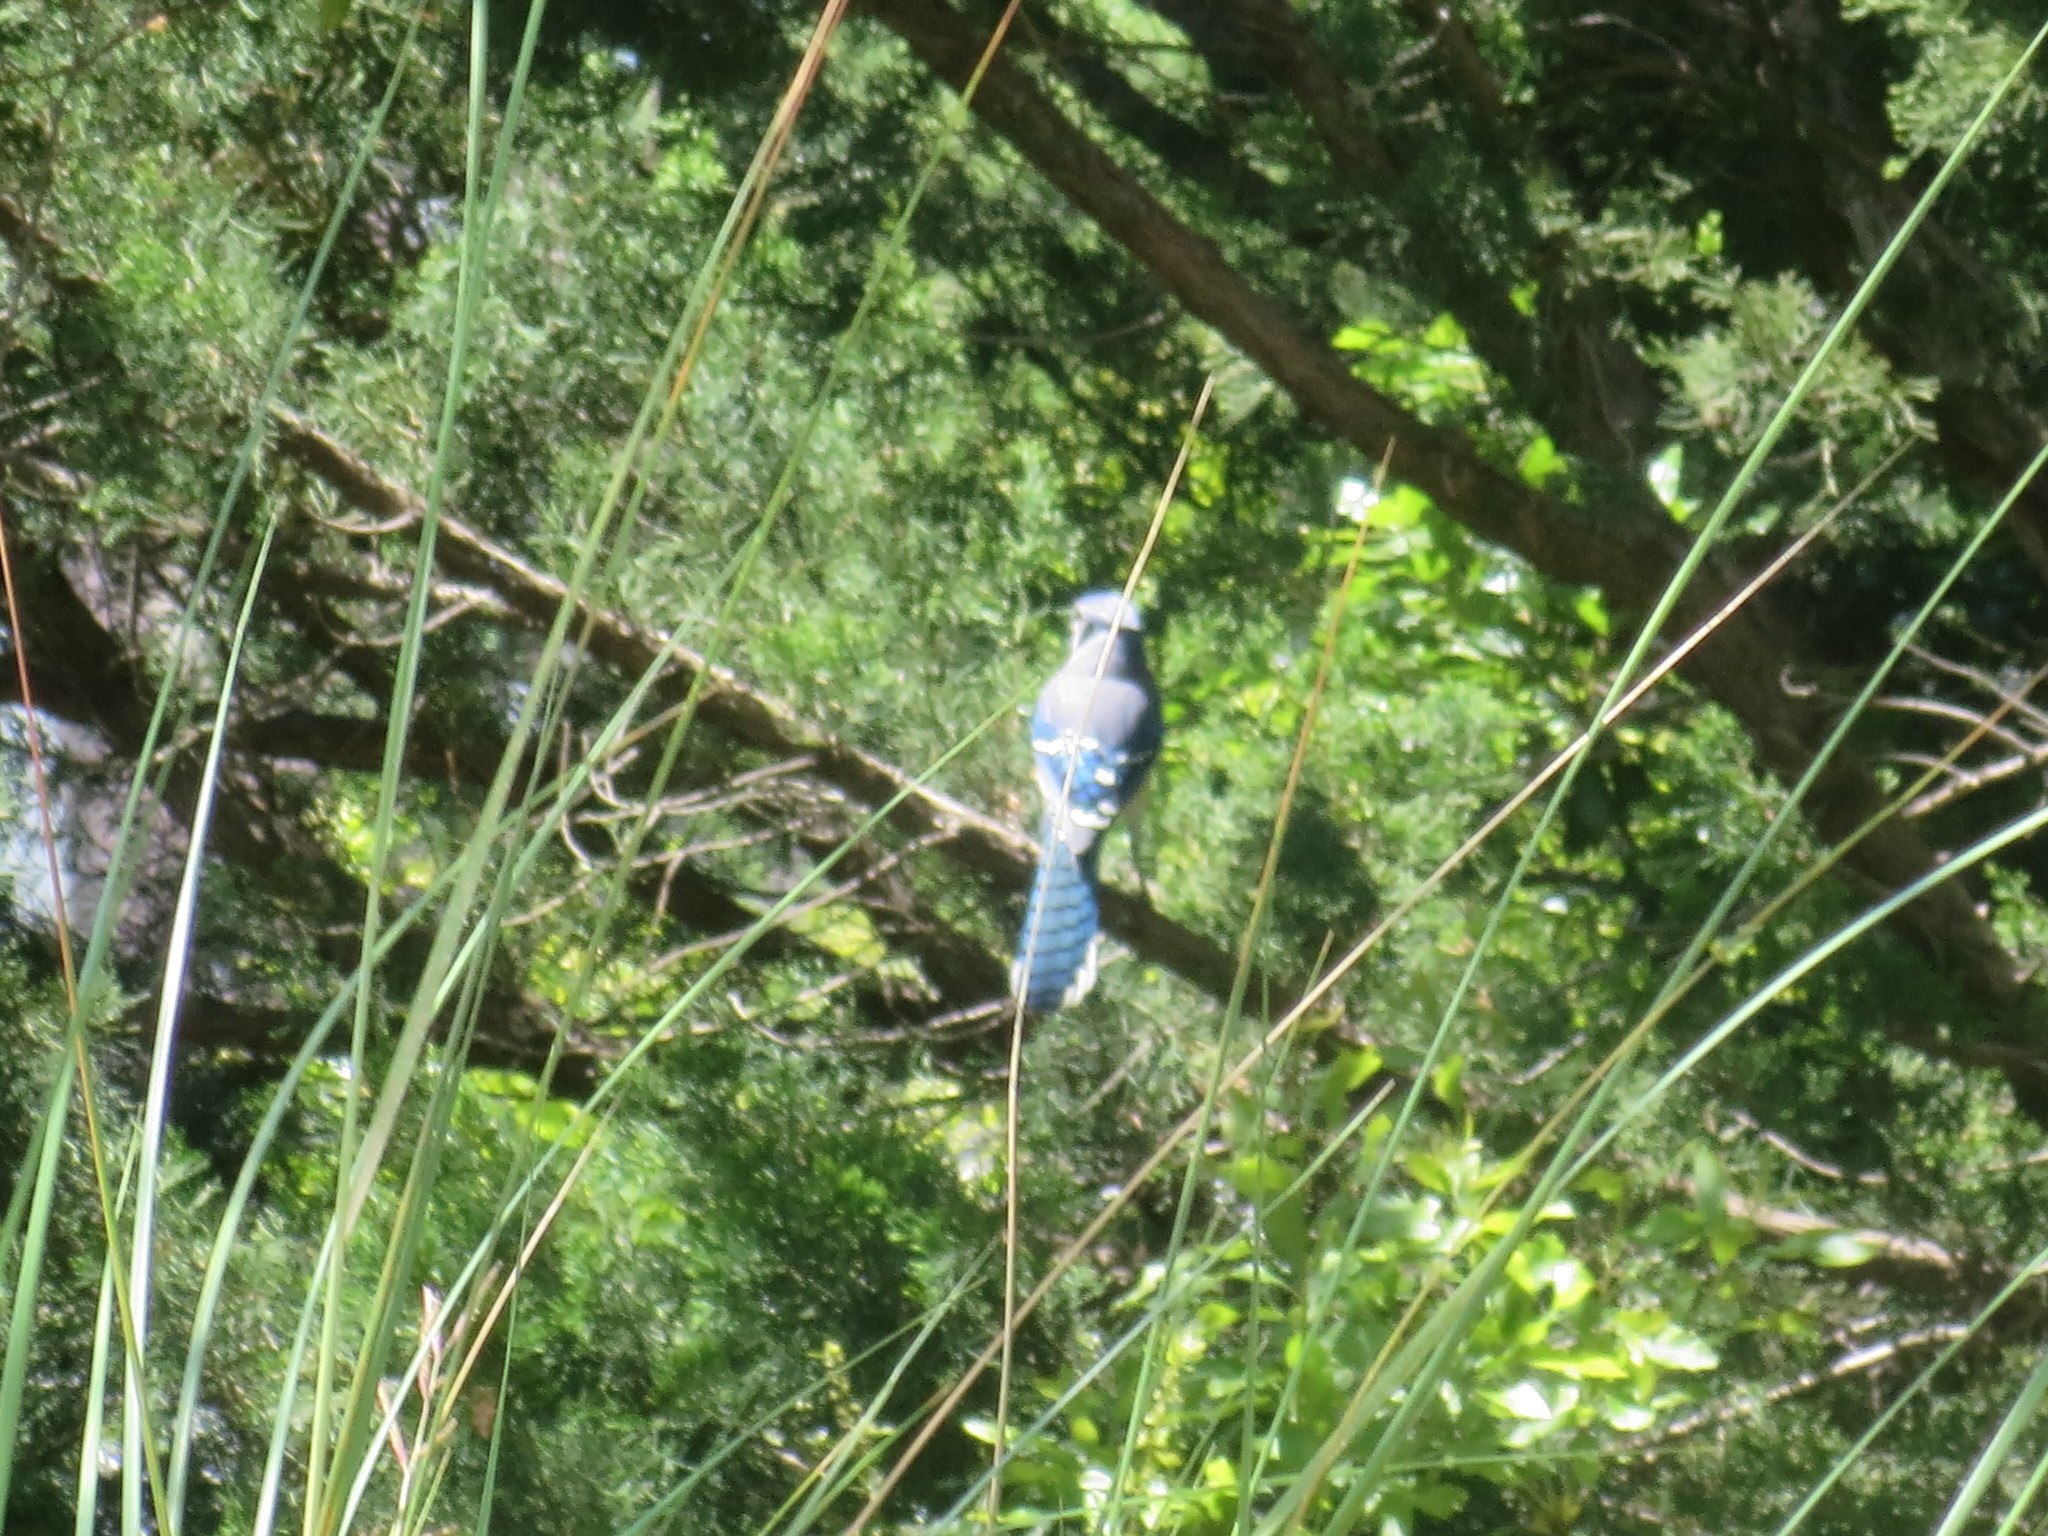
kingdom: Animalia
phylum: Chordata
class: Aves
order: Passeriformes
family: Corvidae
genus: Cyanocitta
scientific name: Cyanocitta cristata
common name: Blue jay
